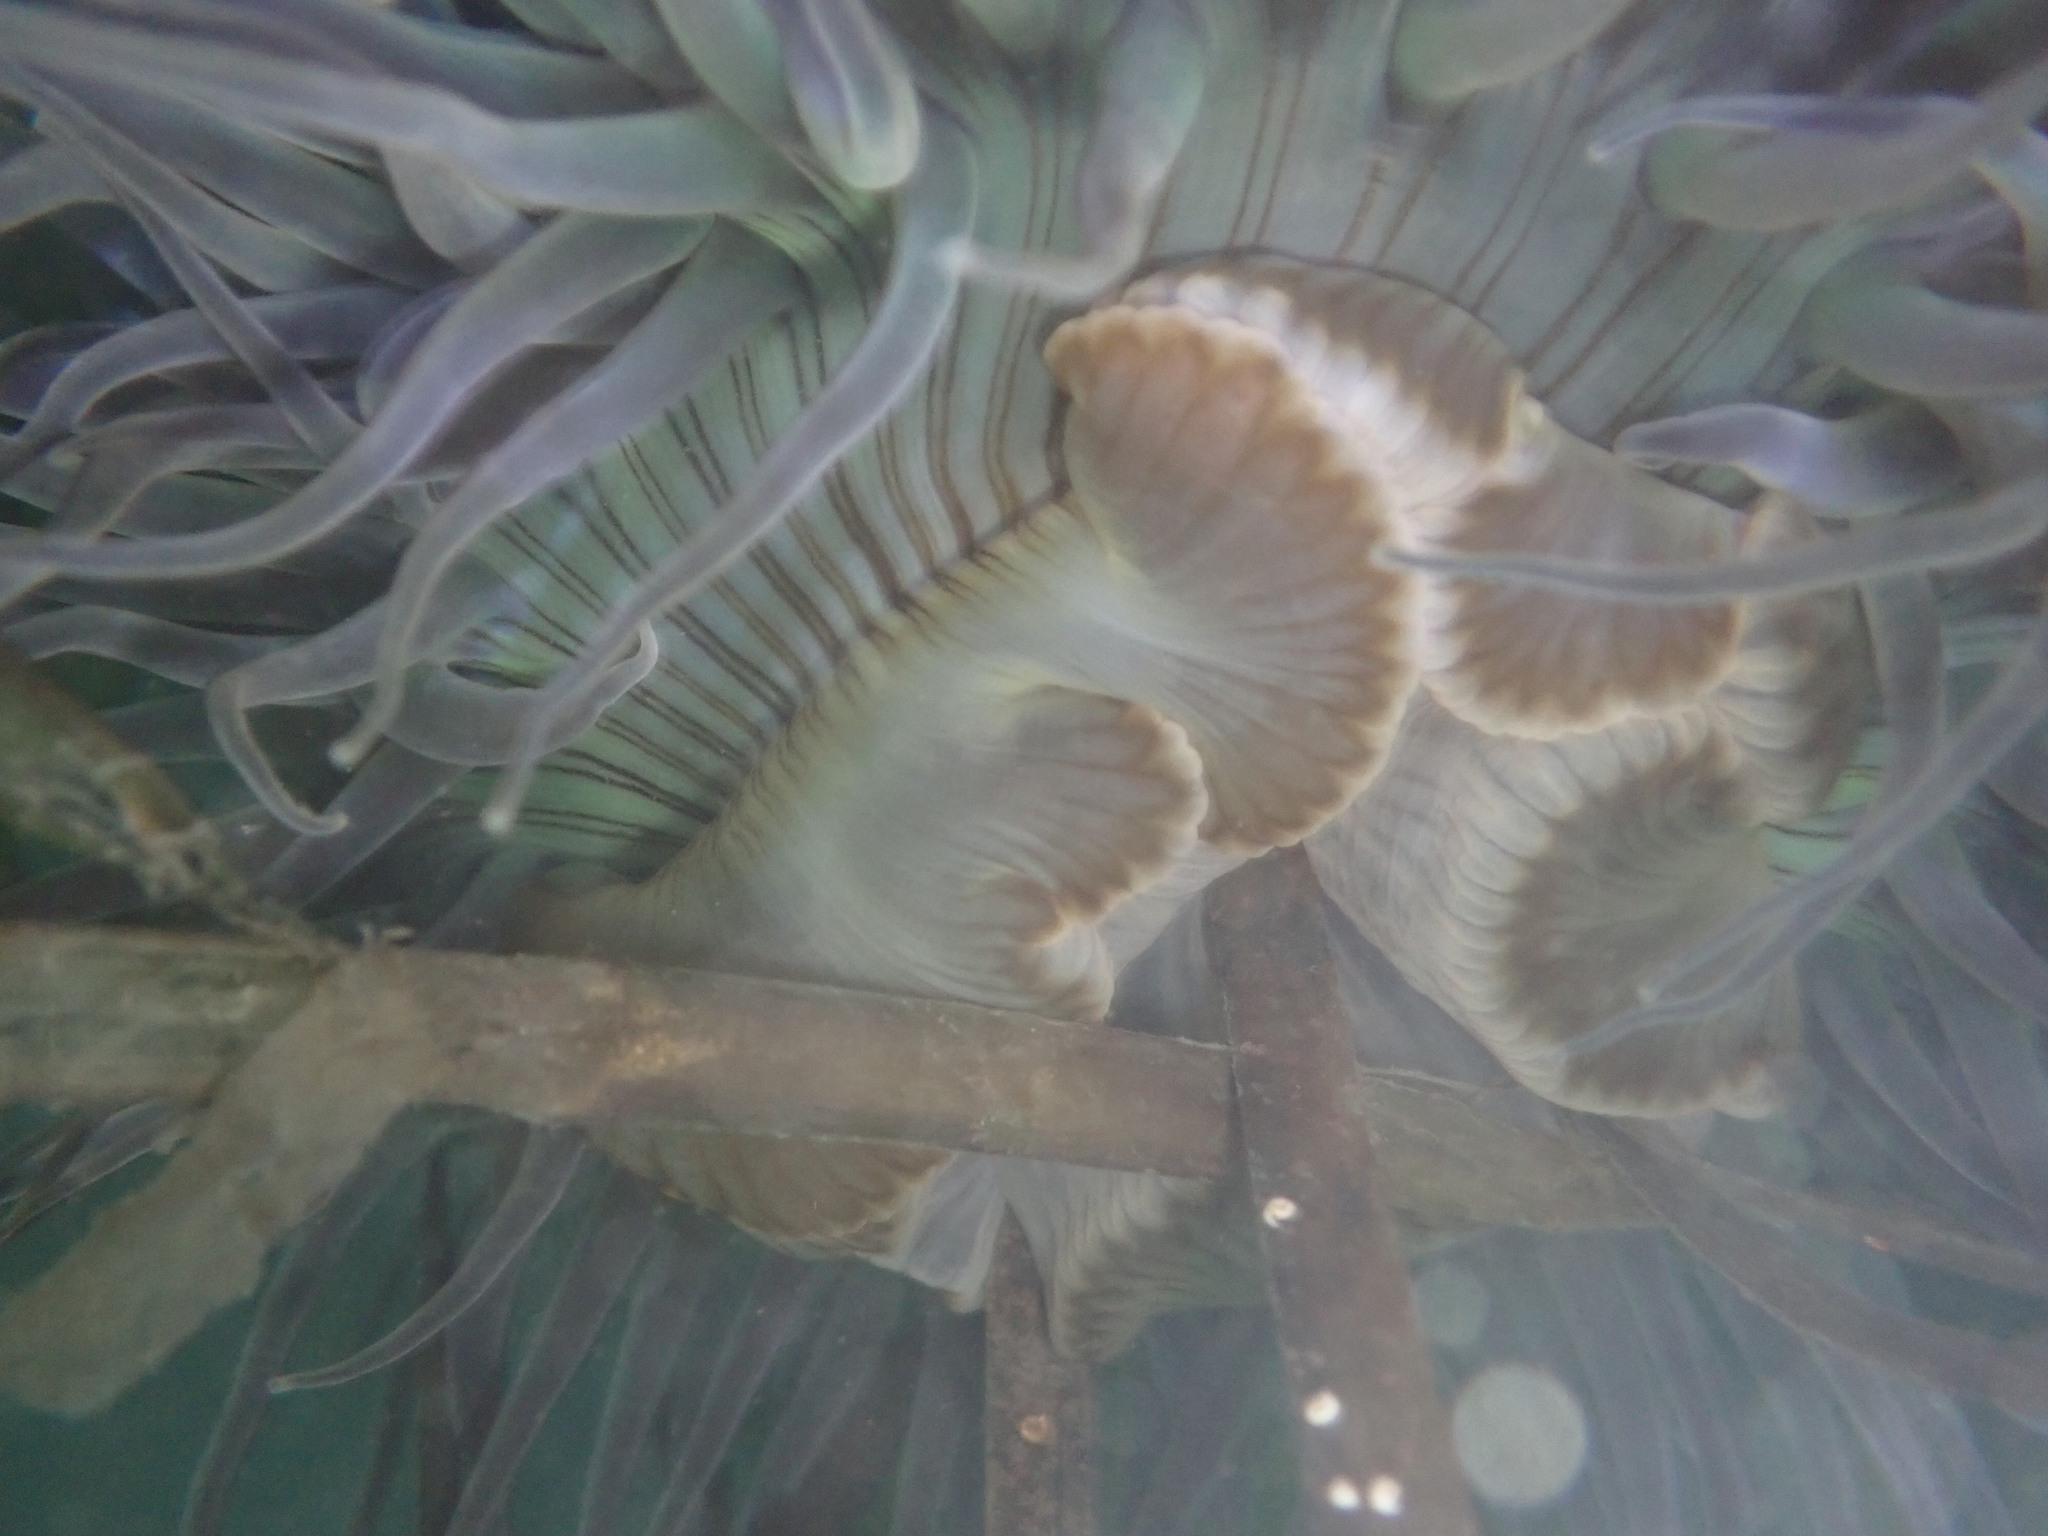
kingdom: Animalia
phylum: Cnidaria
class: Anthozoa
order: Actiniaria
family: Actiniidae
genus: Anthopleura
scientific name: Anthopleura sola
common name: Sun anemone
